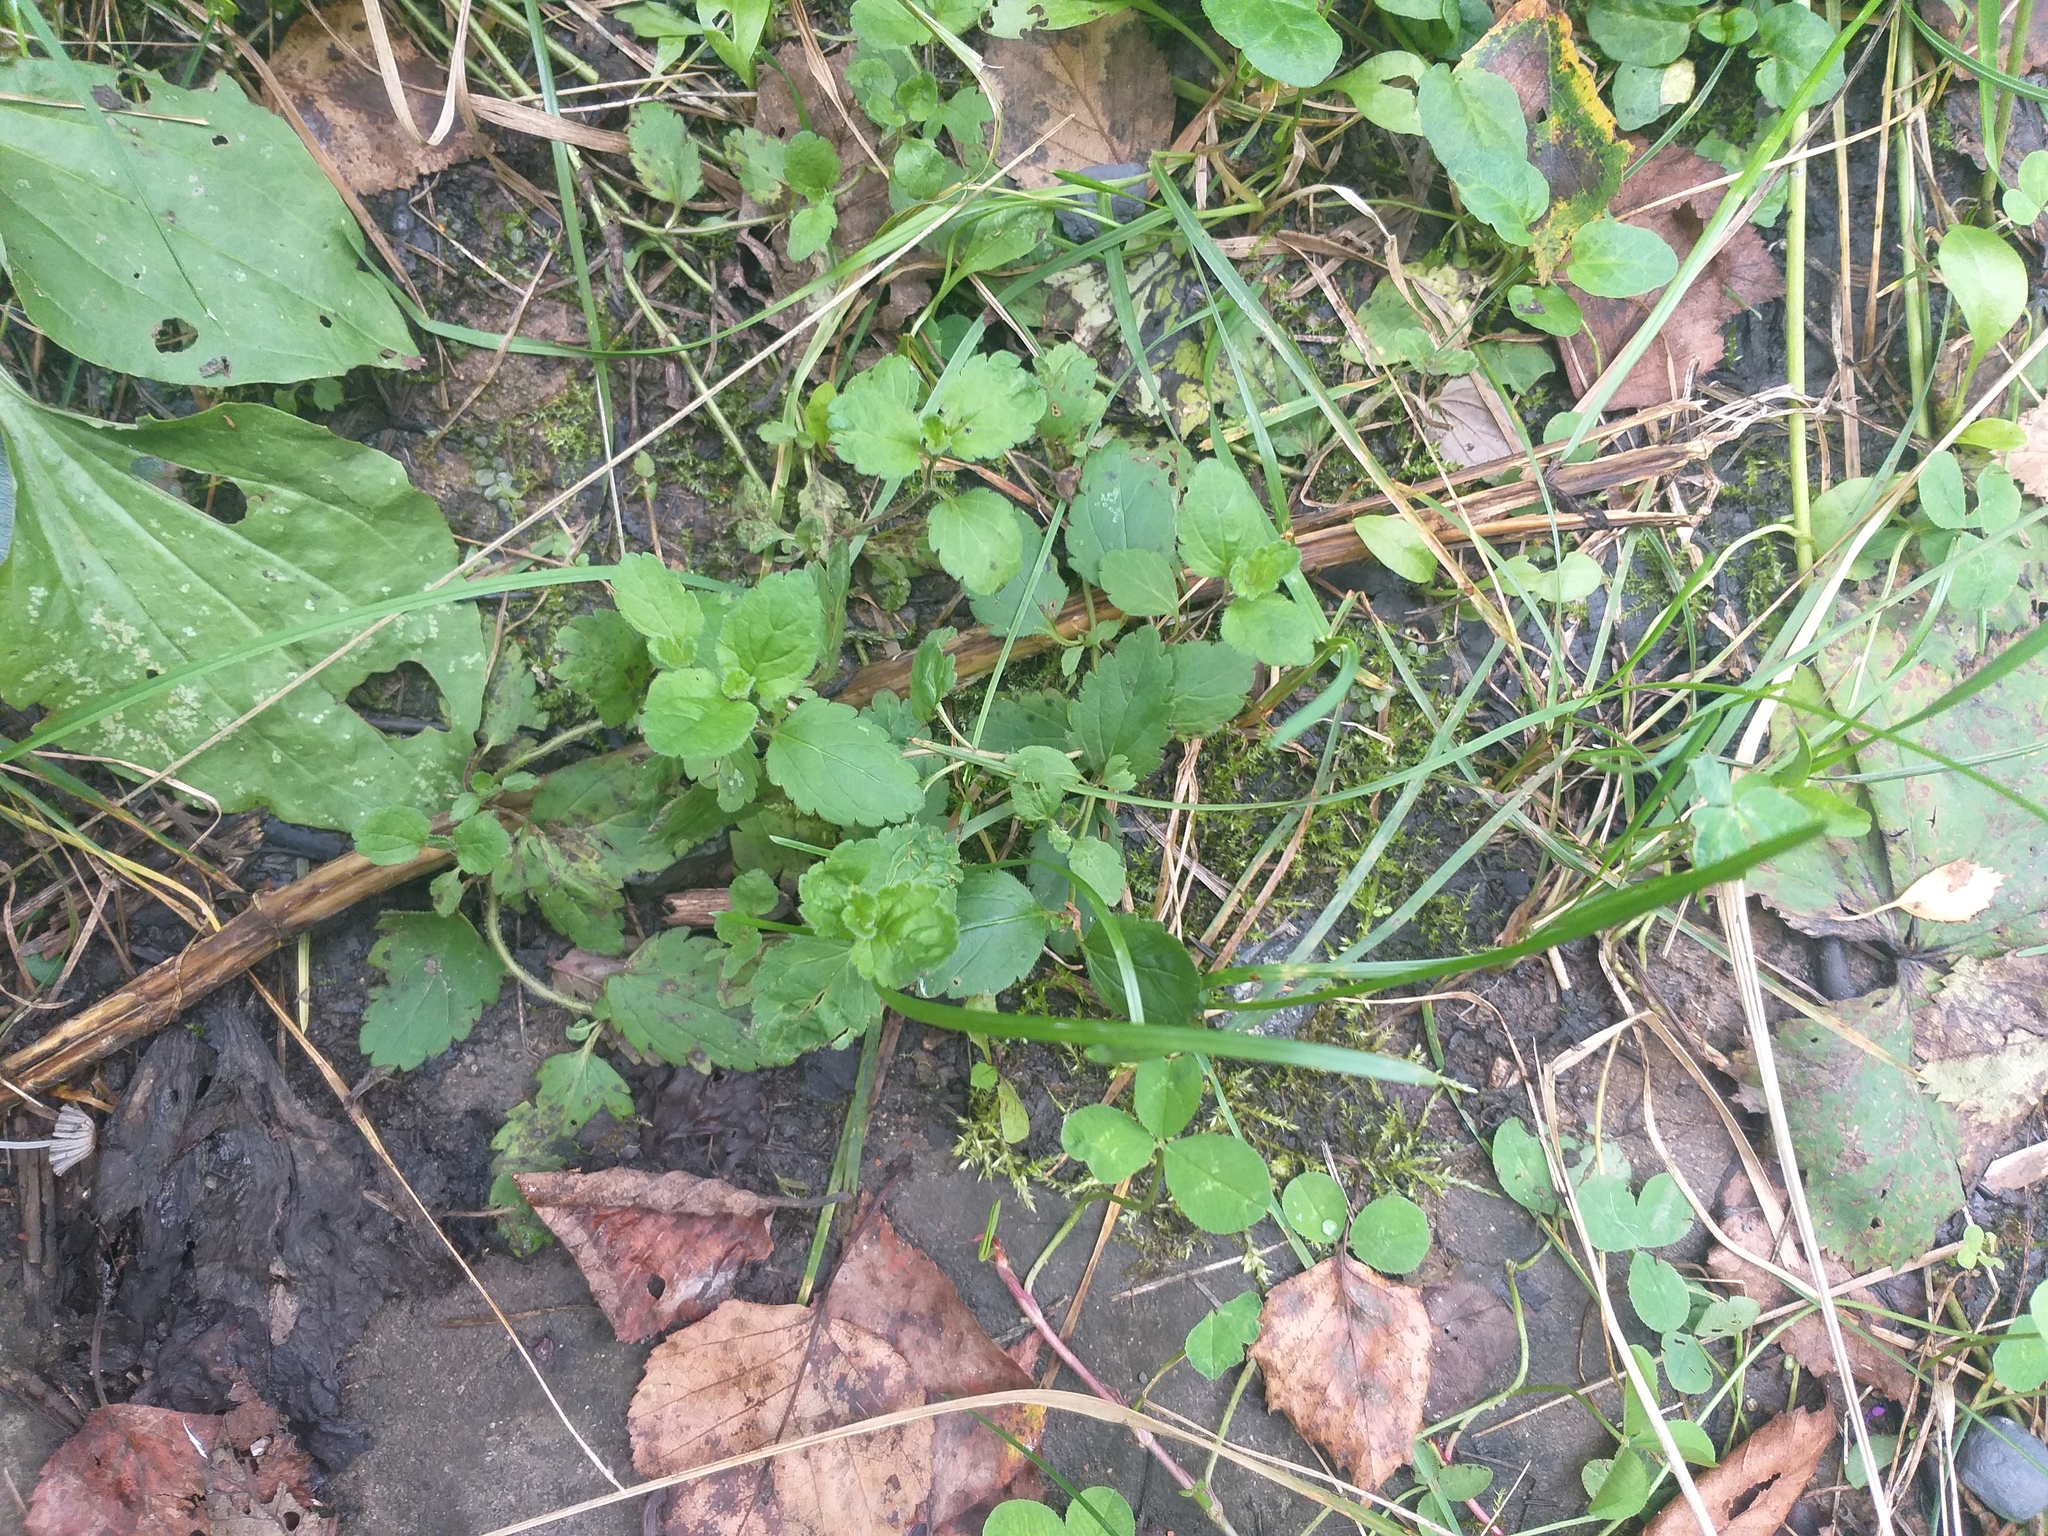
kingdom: Plantae
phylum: Tracheophyta
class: Magnoliopsida
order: Lamiales
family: Plantaginaceae
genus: Veronica
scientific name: Veronica chamaedrys
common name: Germander speedwell
